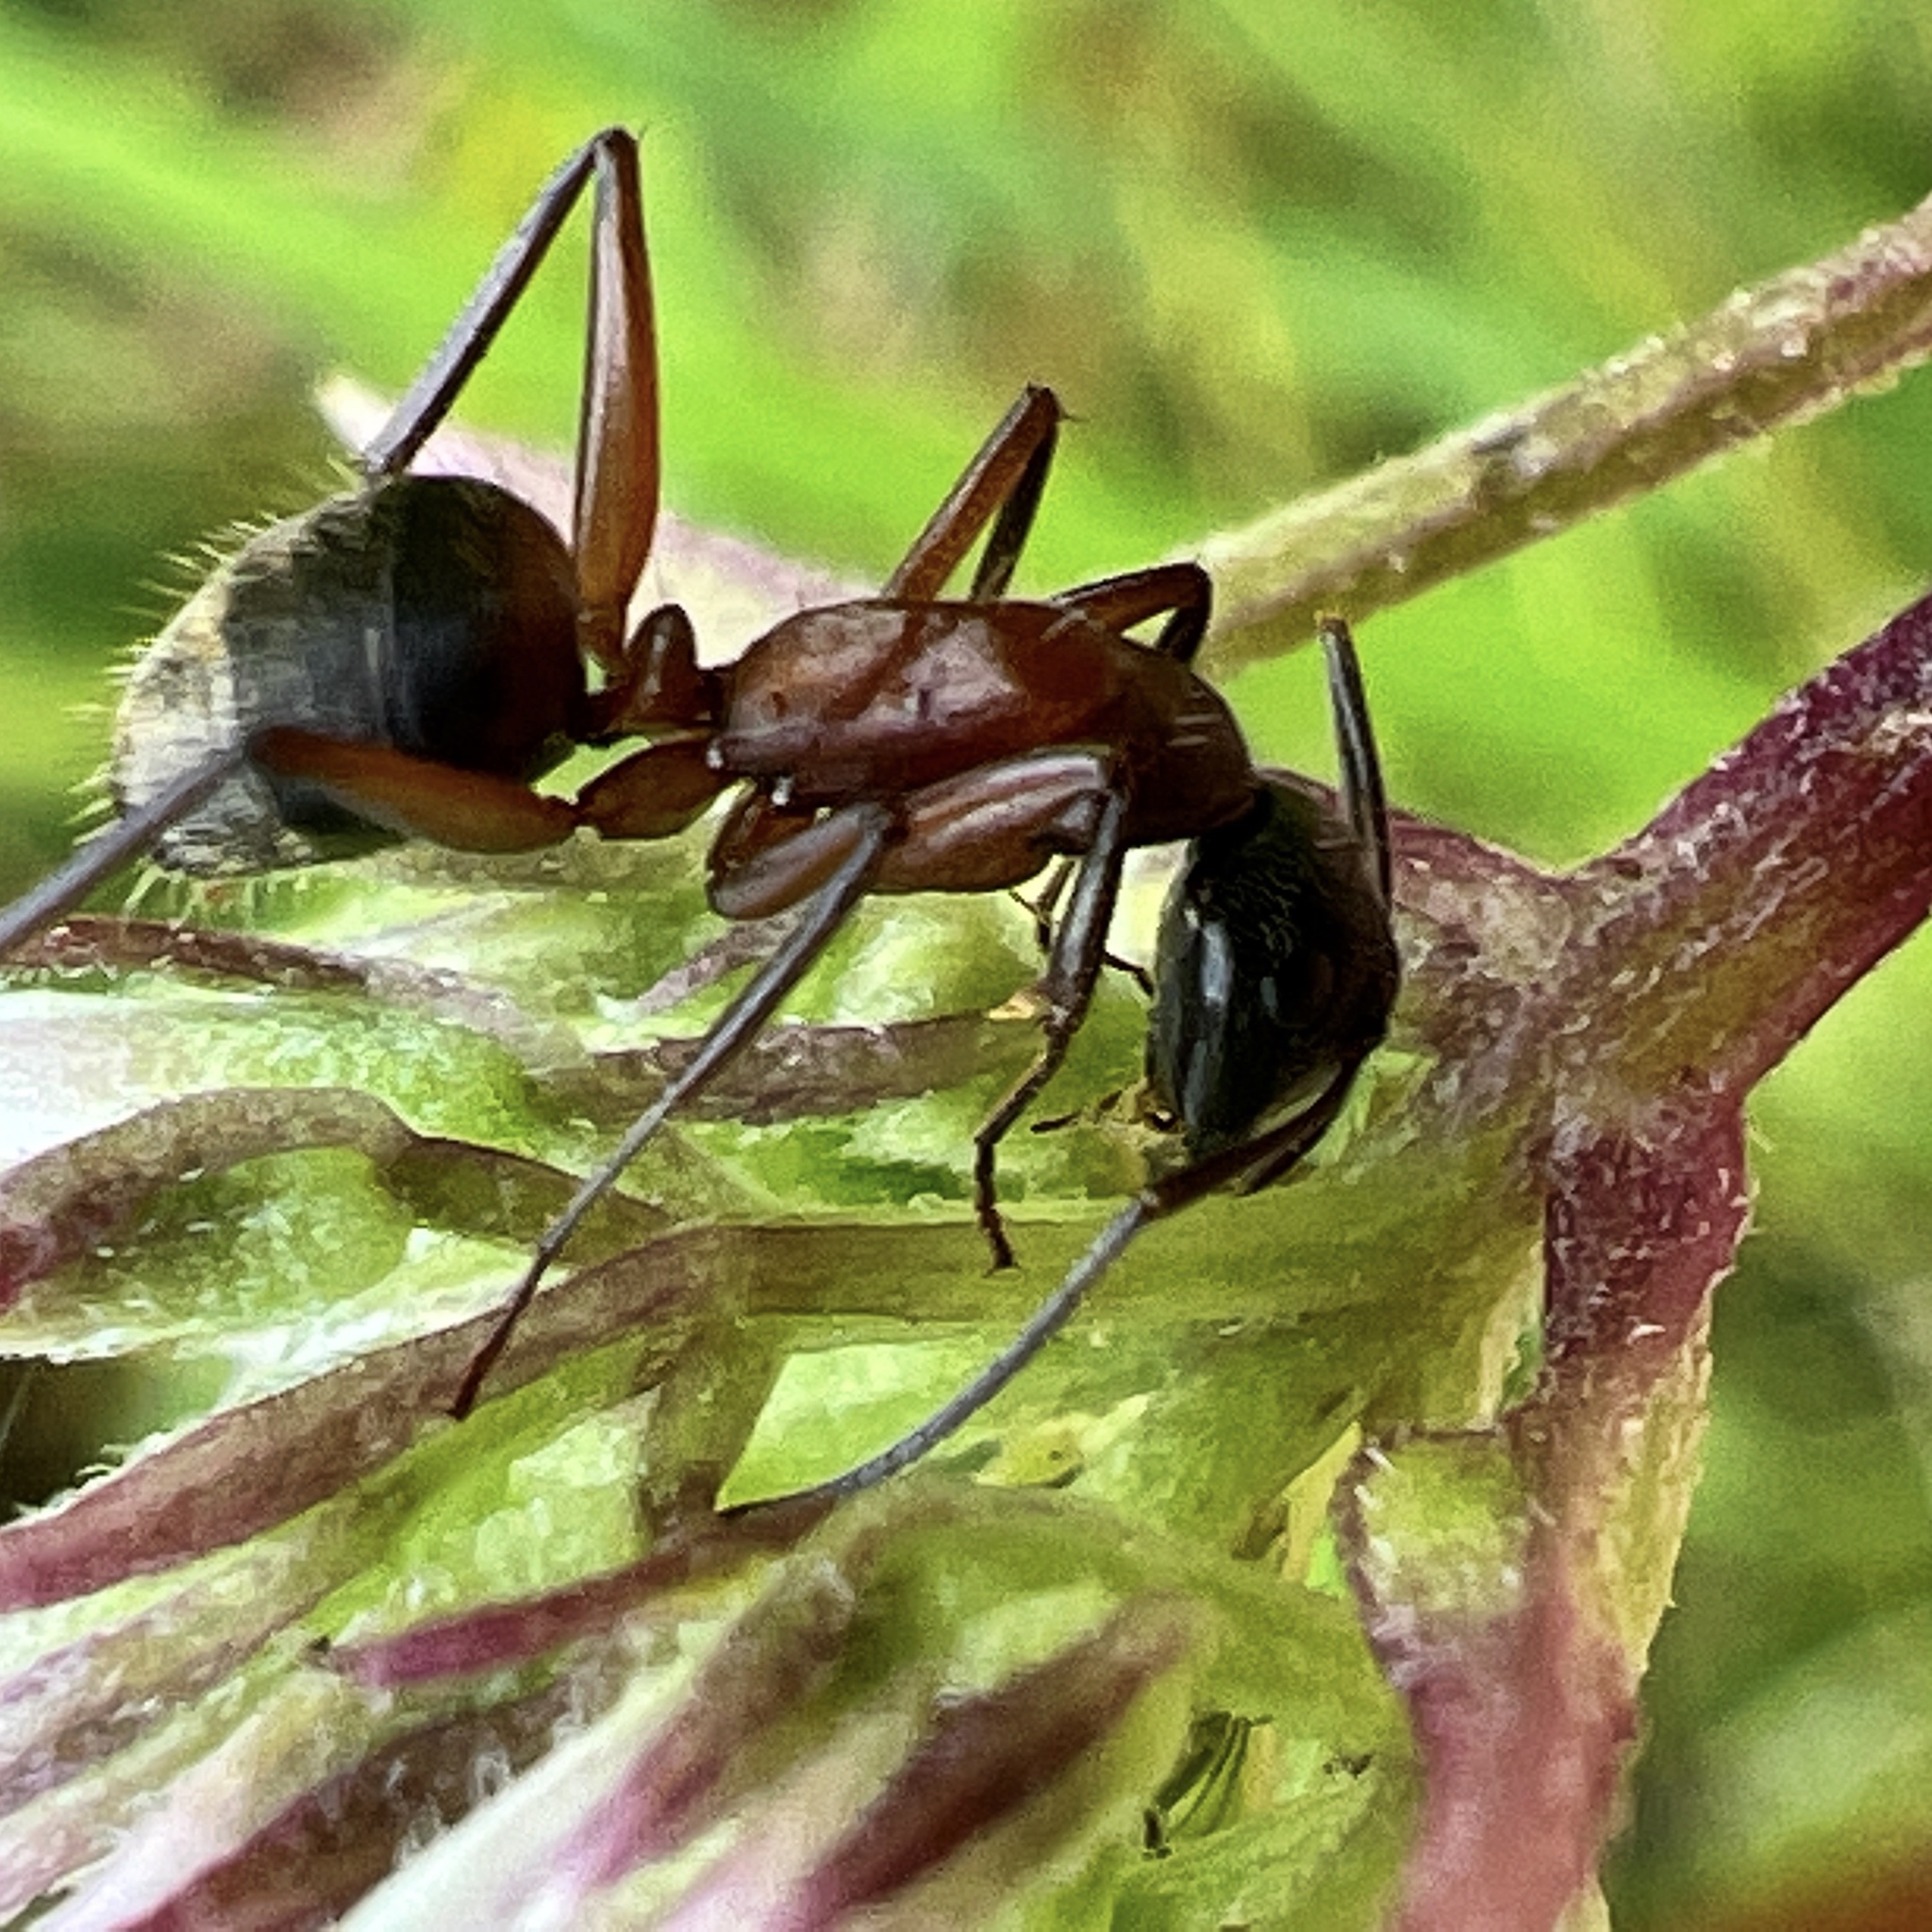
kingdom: Animalia
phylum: Arthropoda
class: Insecta
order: Hymenoptera
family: Formicidae
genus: Camponotus
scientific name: Camponotus chromaiodes
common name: Red carpenter ant
